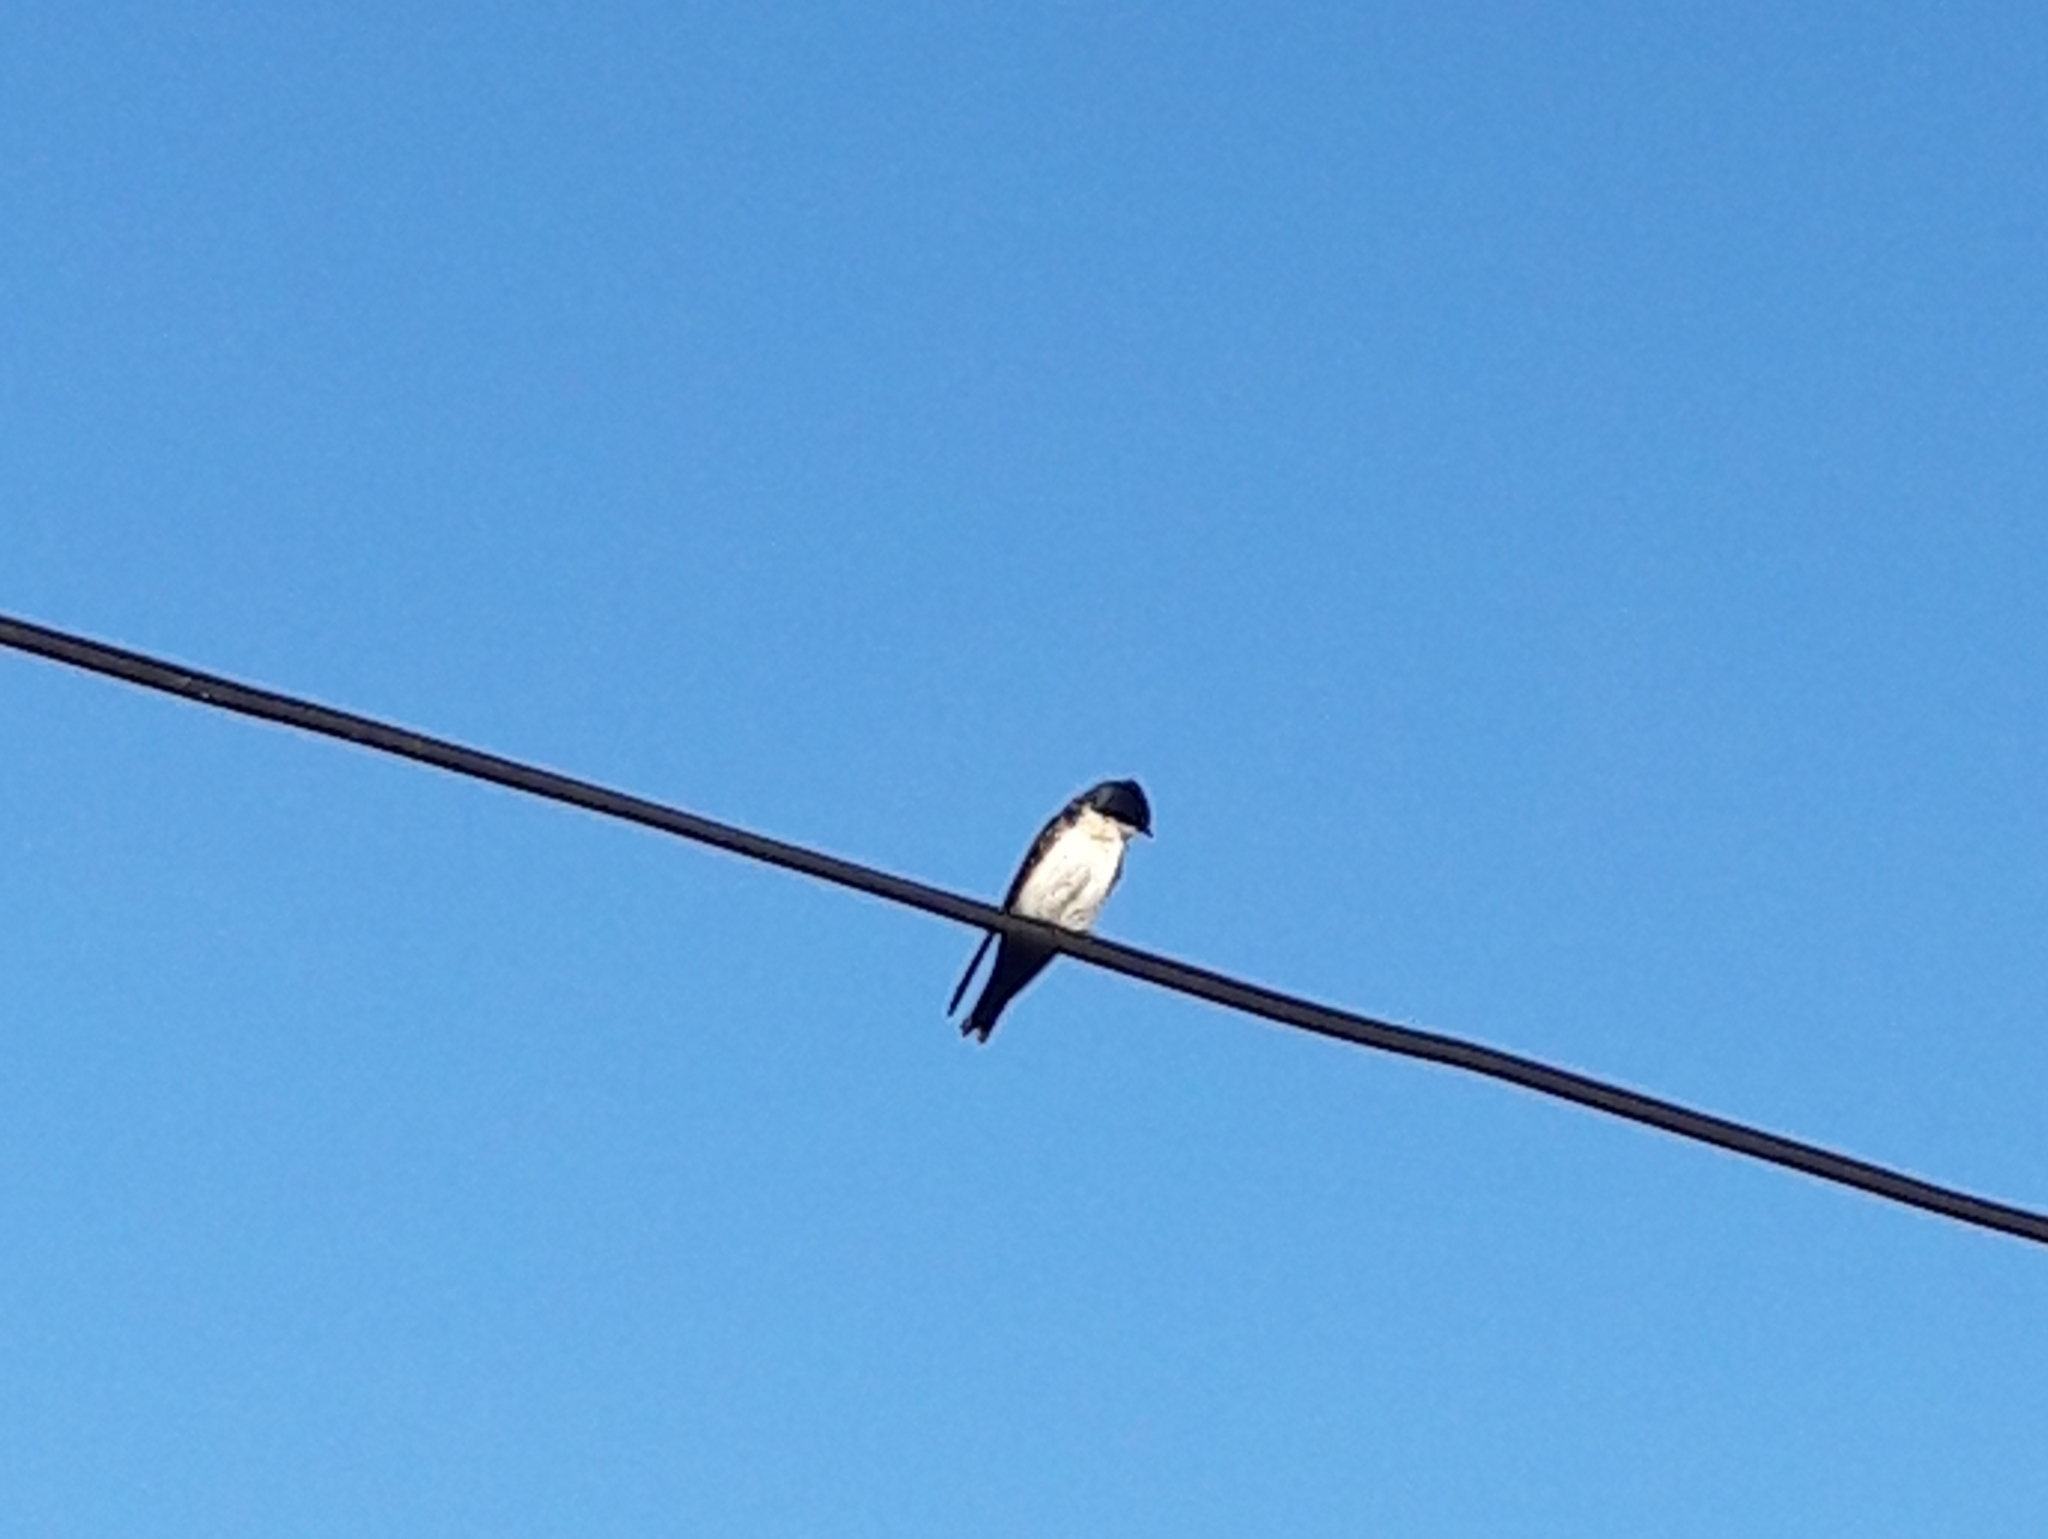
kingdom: Animalia
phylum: Chordata
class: Aves
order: Passeriformes
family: Hirundinidae
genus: Notiochelidon
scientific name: Notiochelidon cyanoleuca
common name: Blue-and-white swallow
